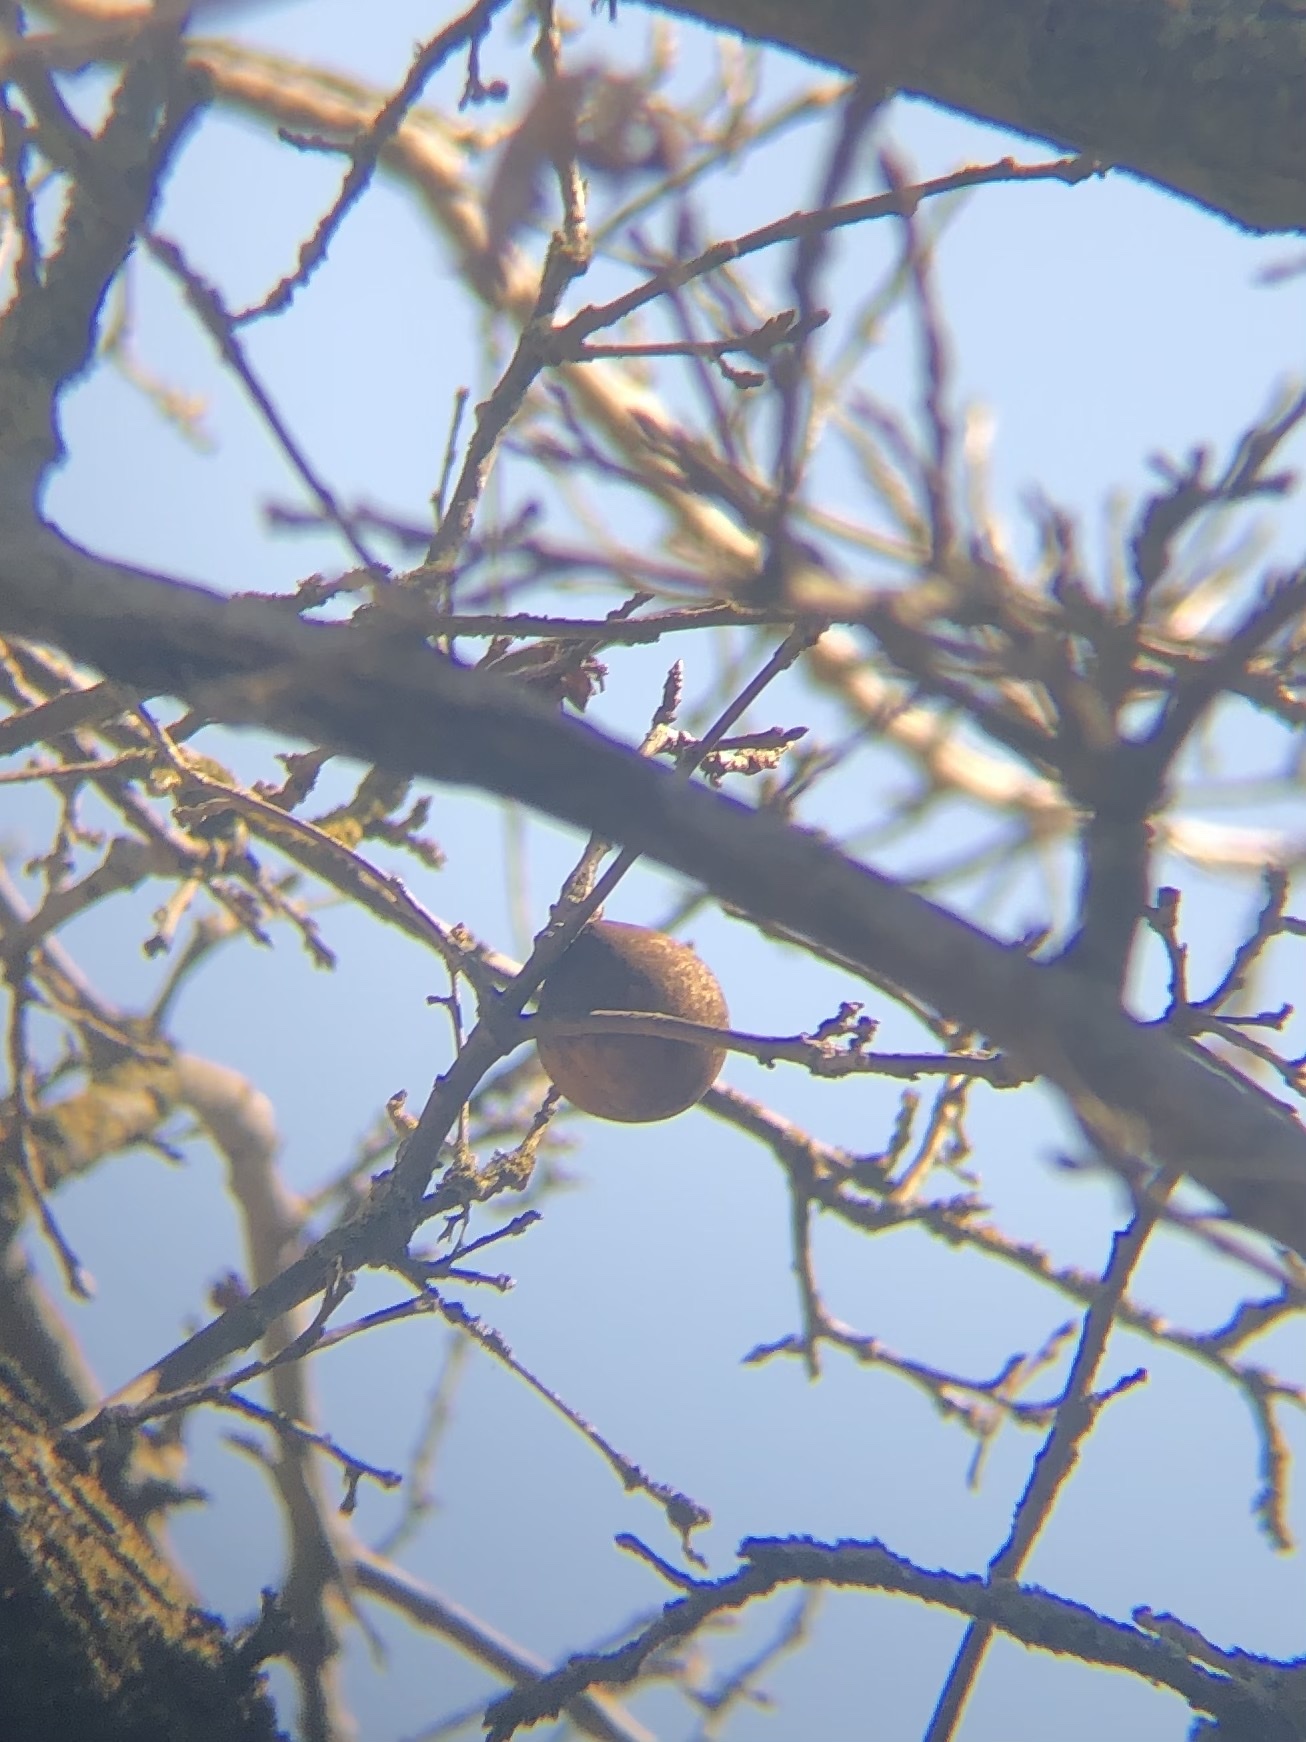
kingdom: Animalia
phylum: Arthropoda
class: Insecta
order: Hymenoptera
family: Cynipidae
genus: Andricus
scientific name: Andricus quercuscalifornicus
